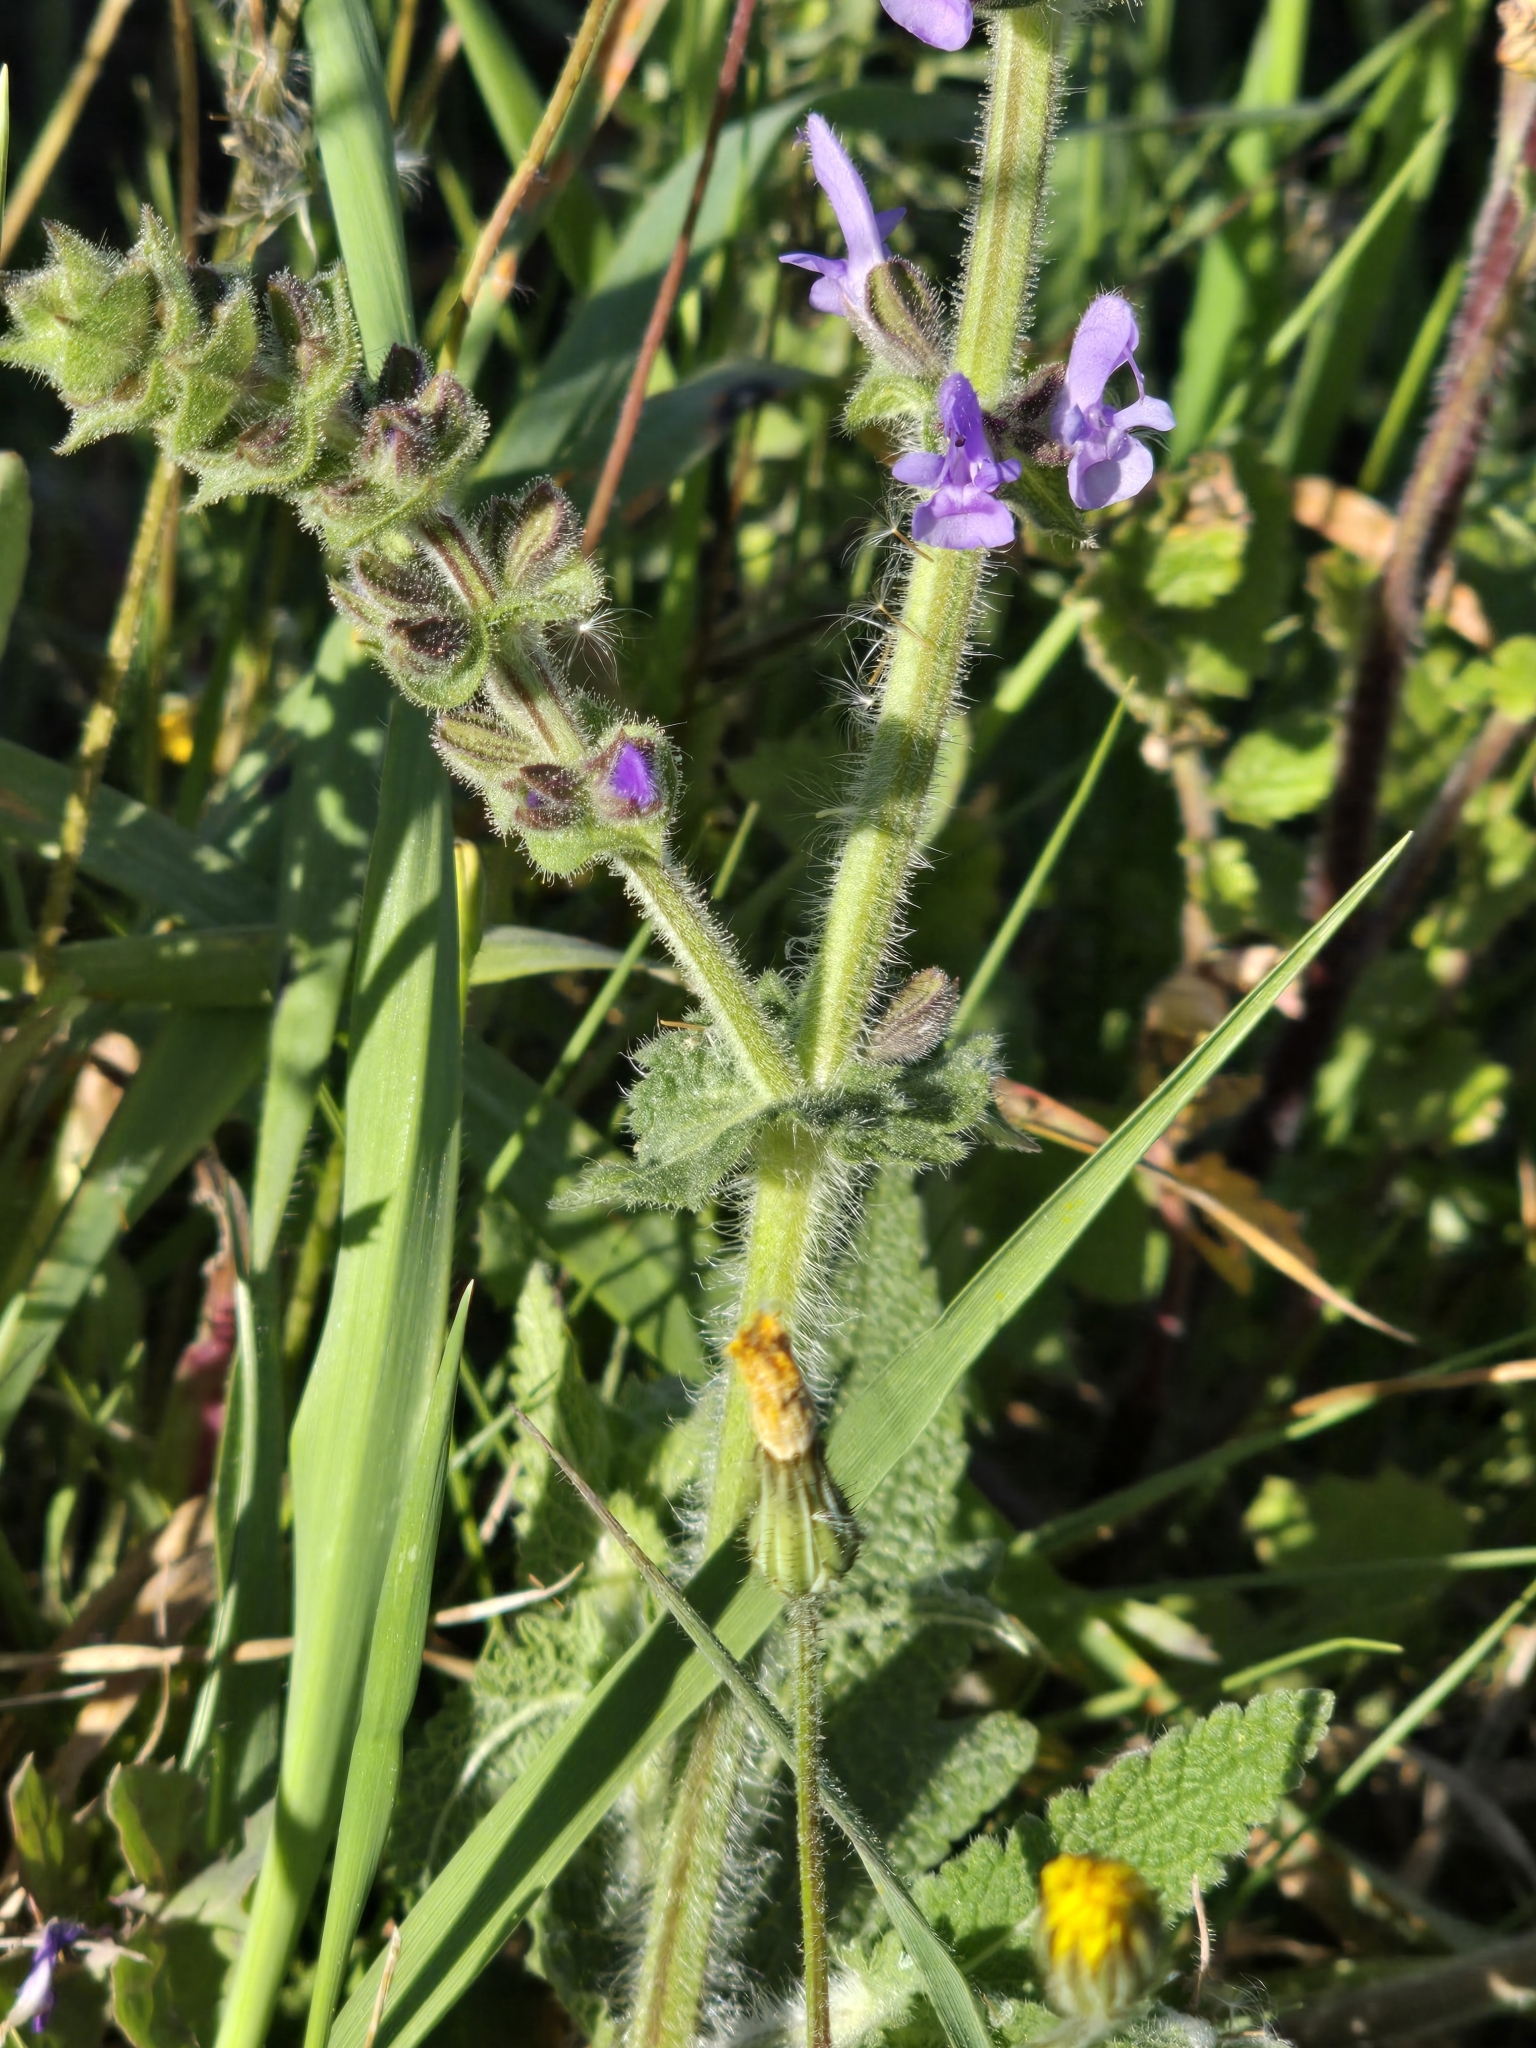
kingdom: Plantae
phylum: Tracheophyta
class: Magnoliopsida
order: Lamiales
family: Lamiaceae
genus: Salvia
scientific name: Salvia verbenaca
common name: Wild clary
